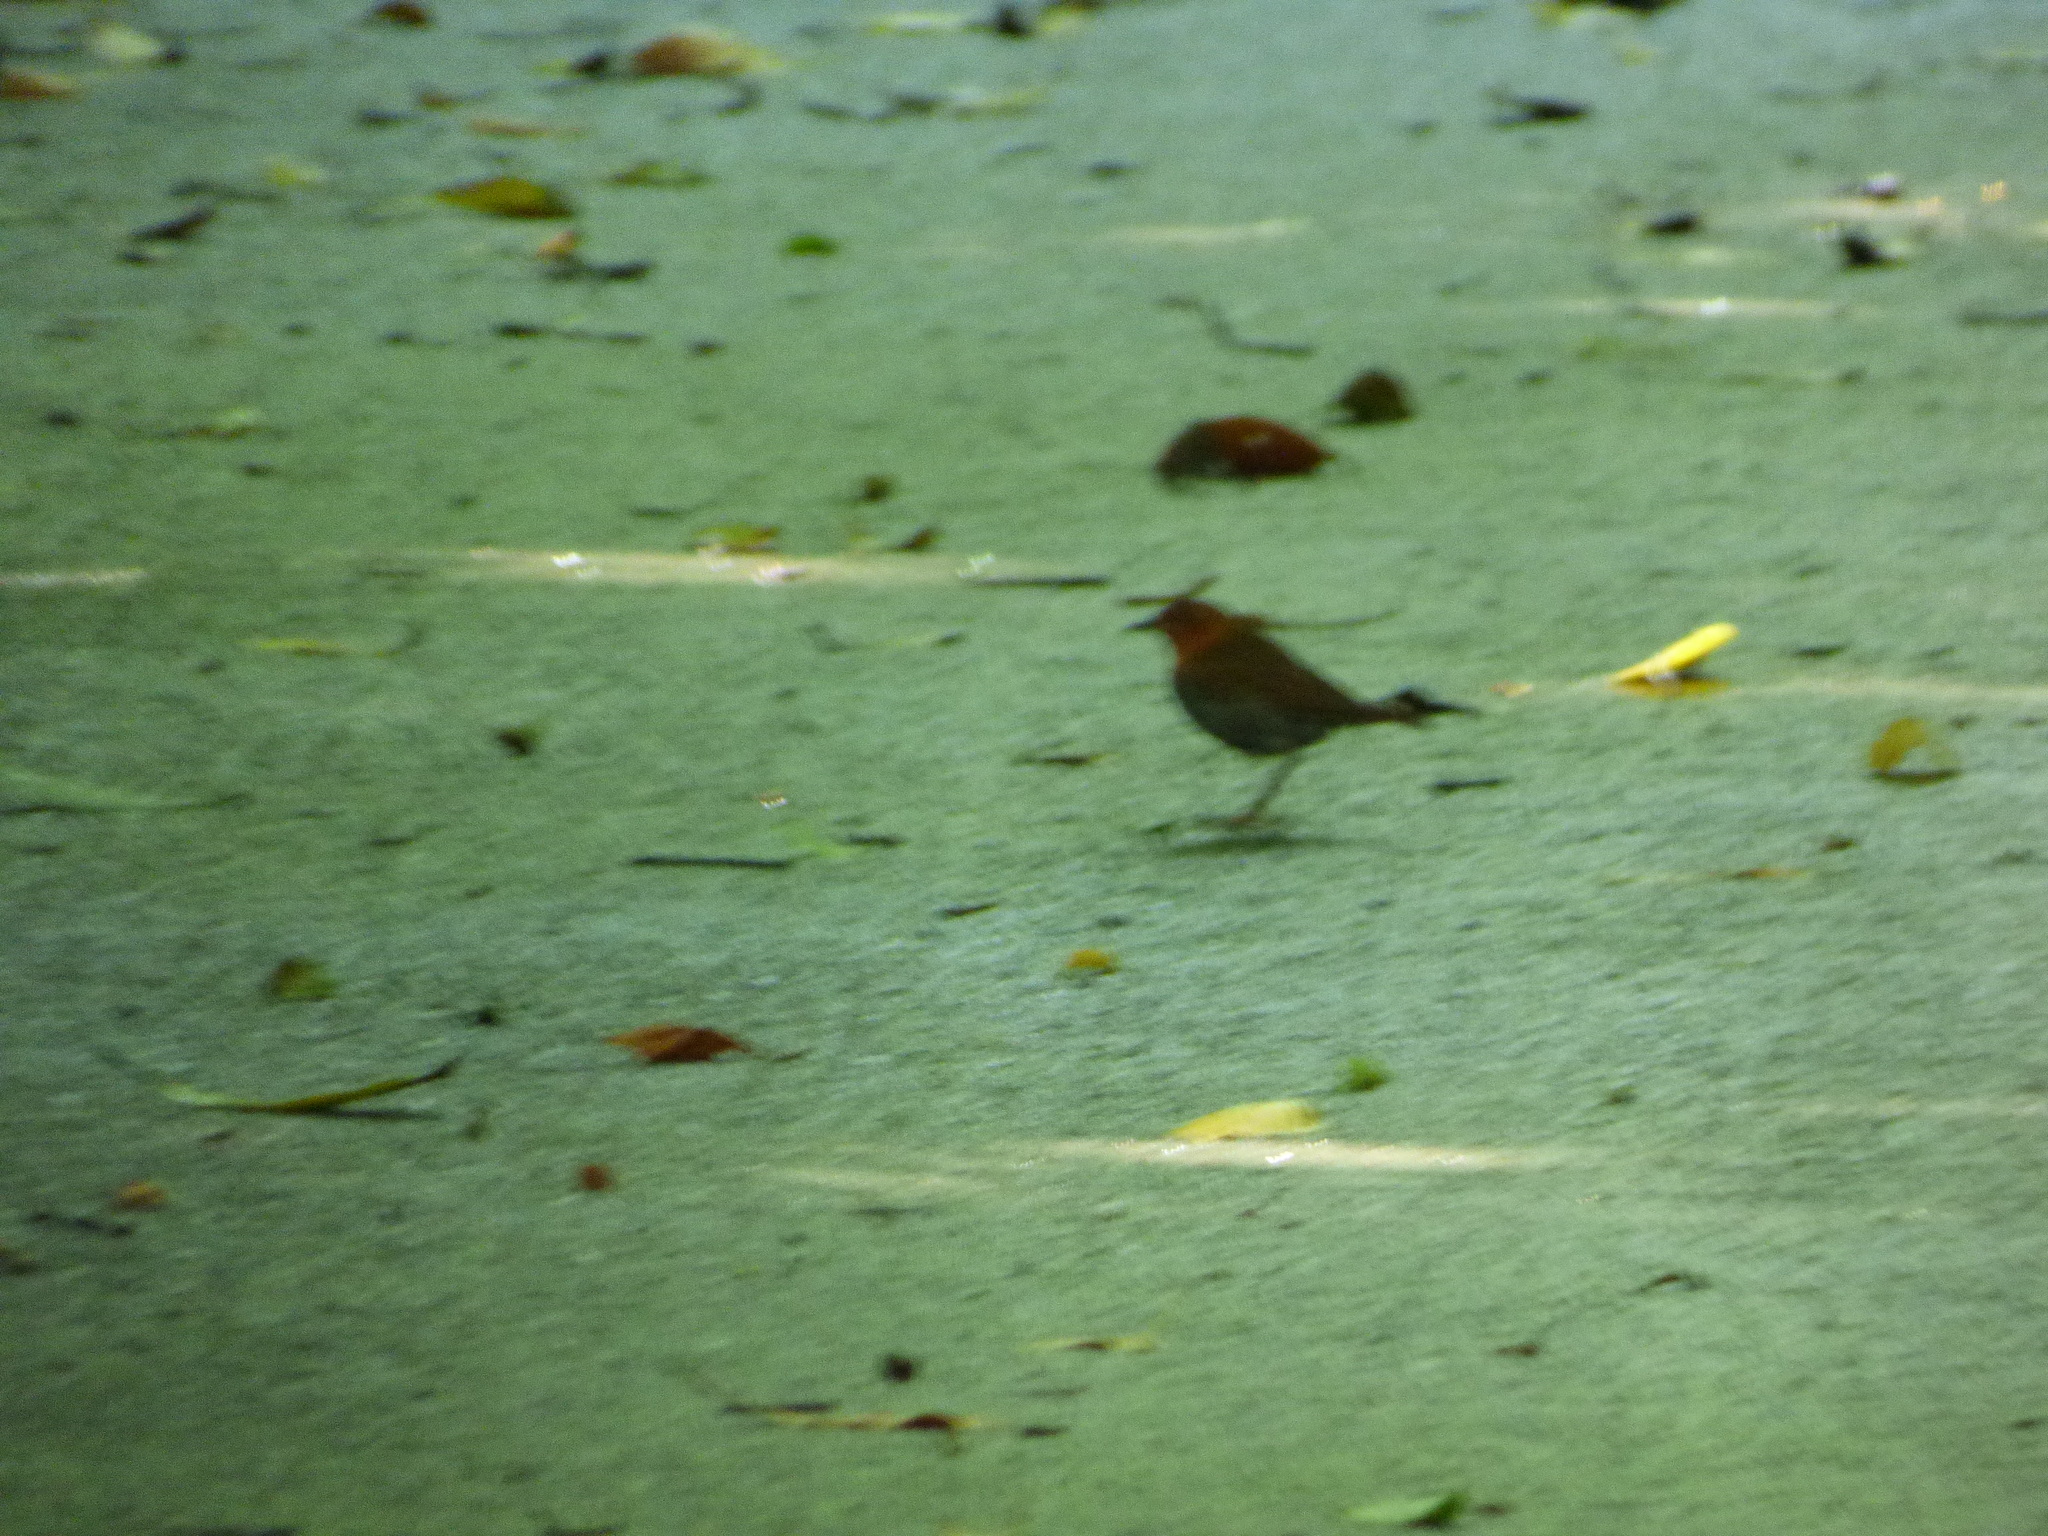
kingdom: Animalia
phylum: Chordata
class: Aves
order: Passeriformes
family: Muscicapidae
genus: Erithacus
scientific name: Erithacus akahige
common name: Japanese robin
